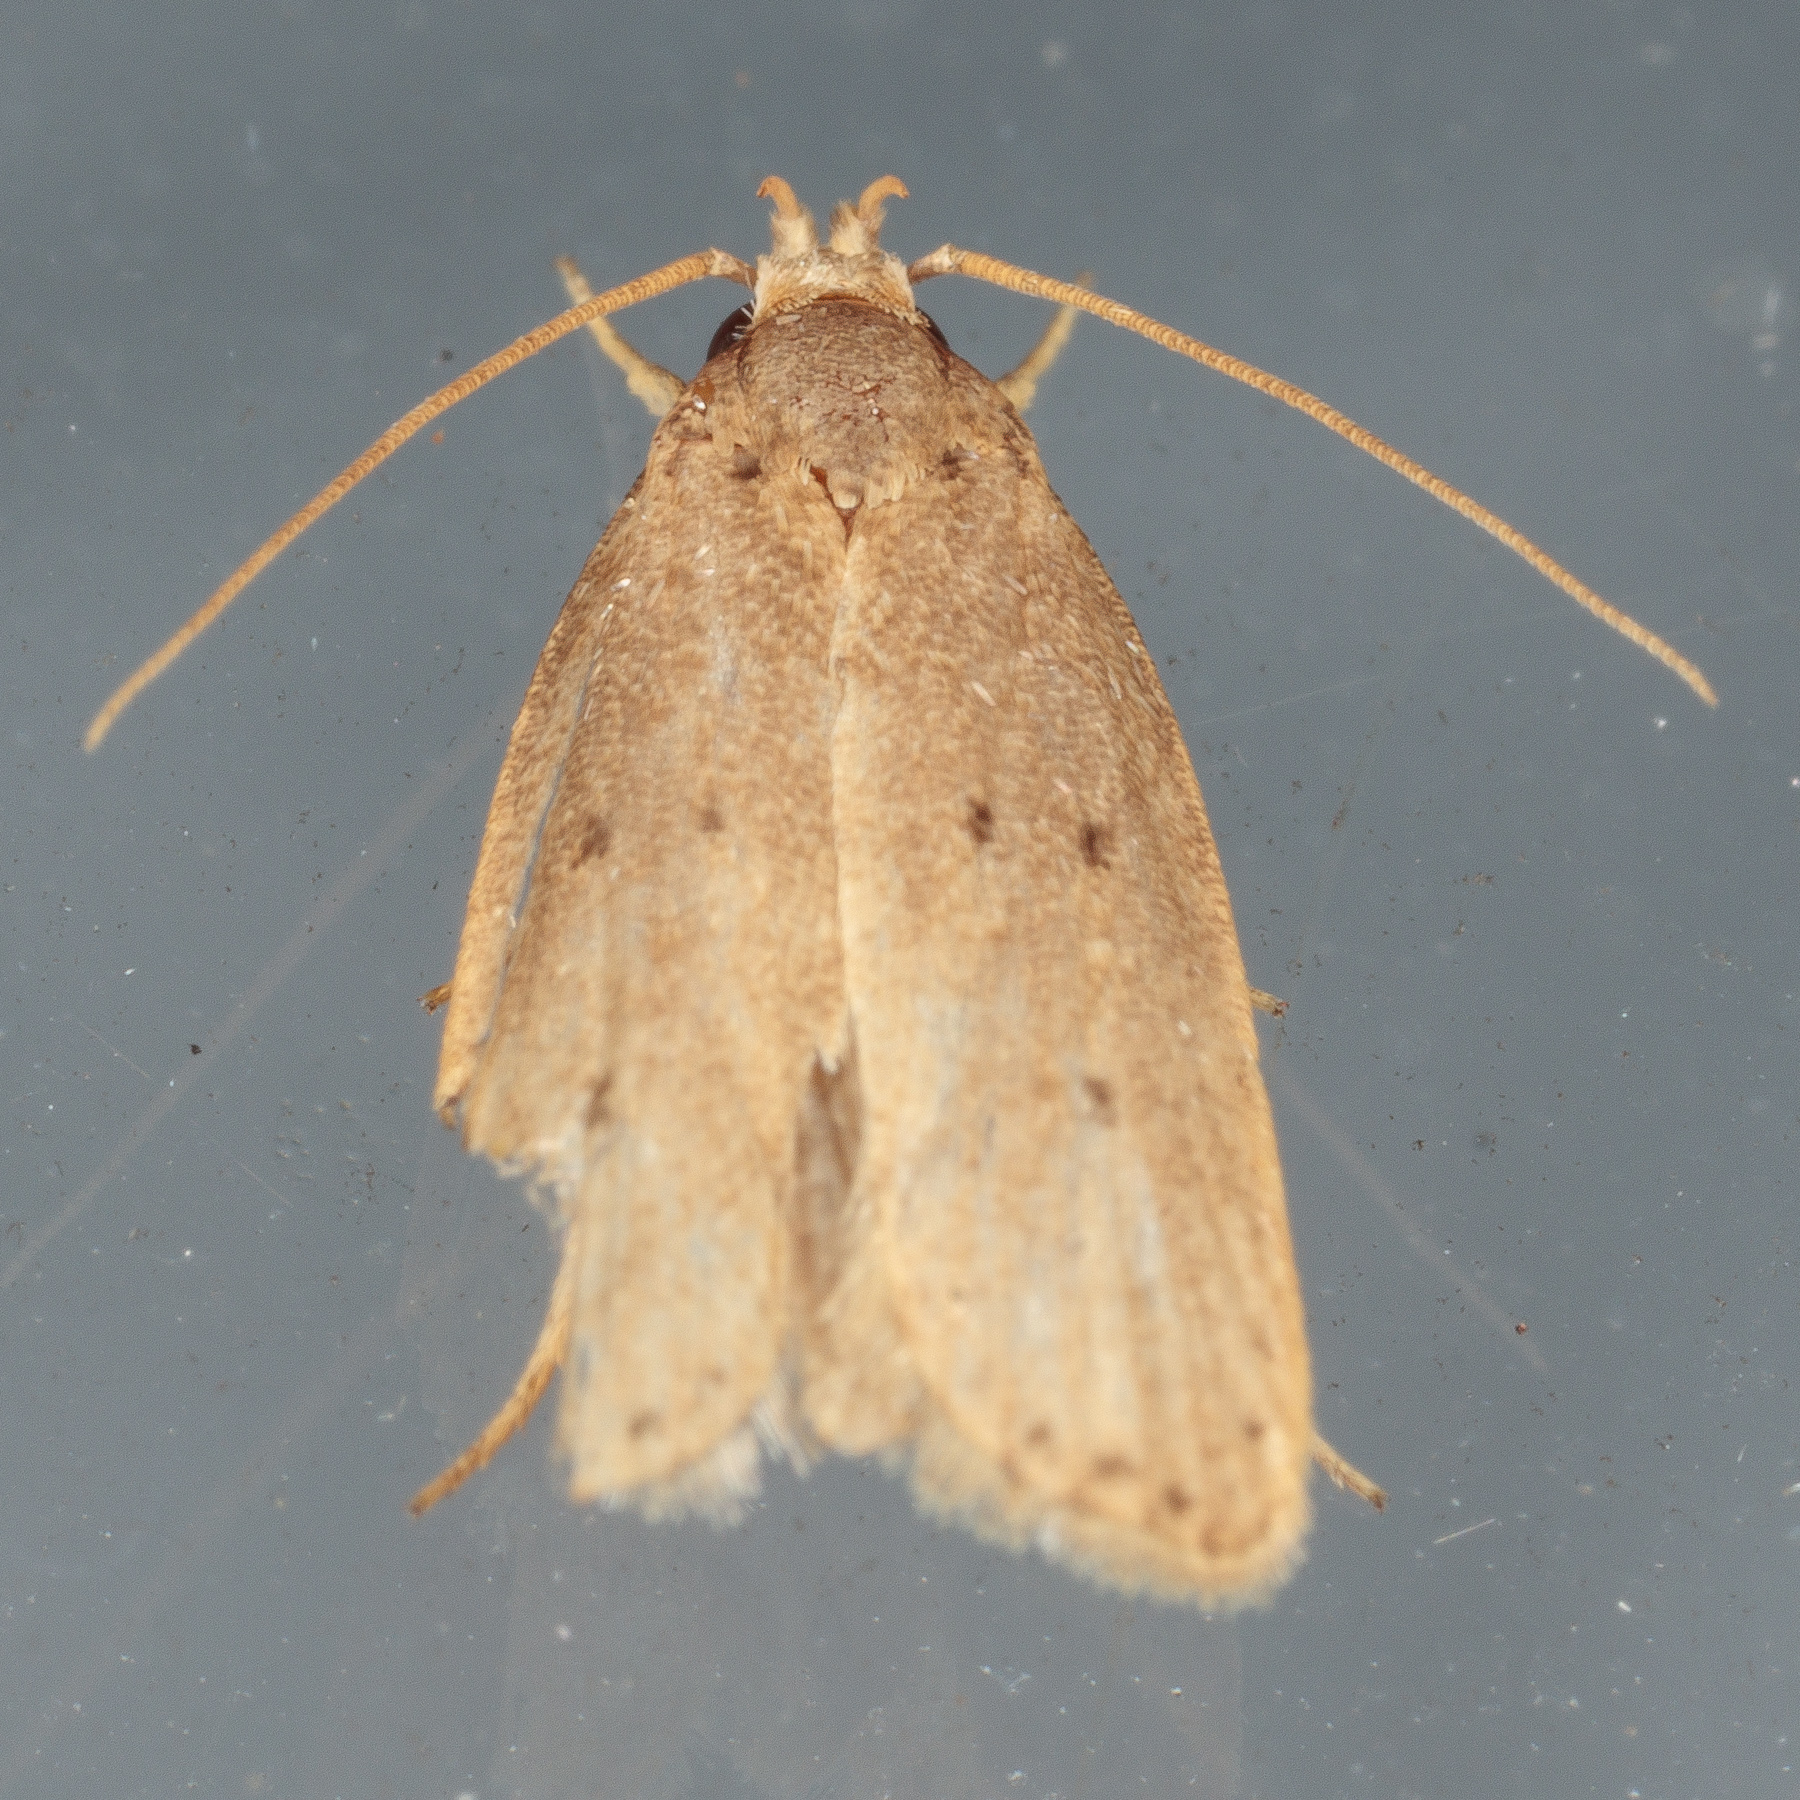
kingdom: Animalia
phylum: Arthropoda
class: Insecta
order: Lepidoptera
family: Autostichidae
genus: Autosticha
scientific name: Autosticha kyotensis
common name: Kyoto moth
